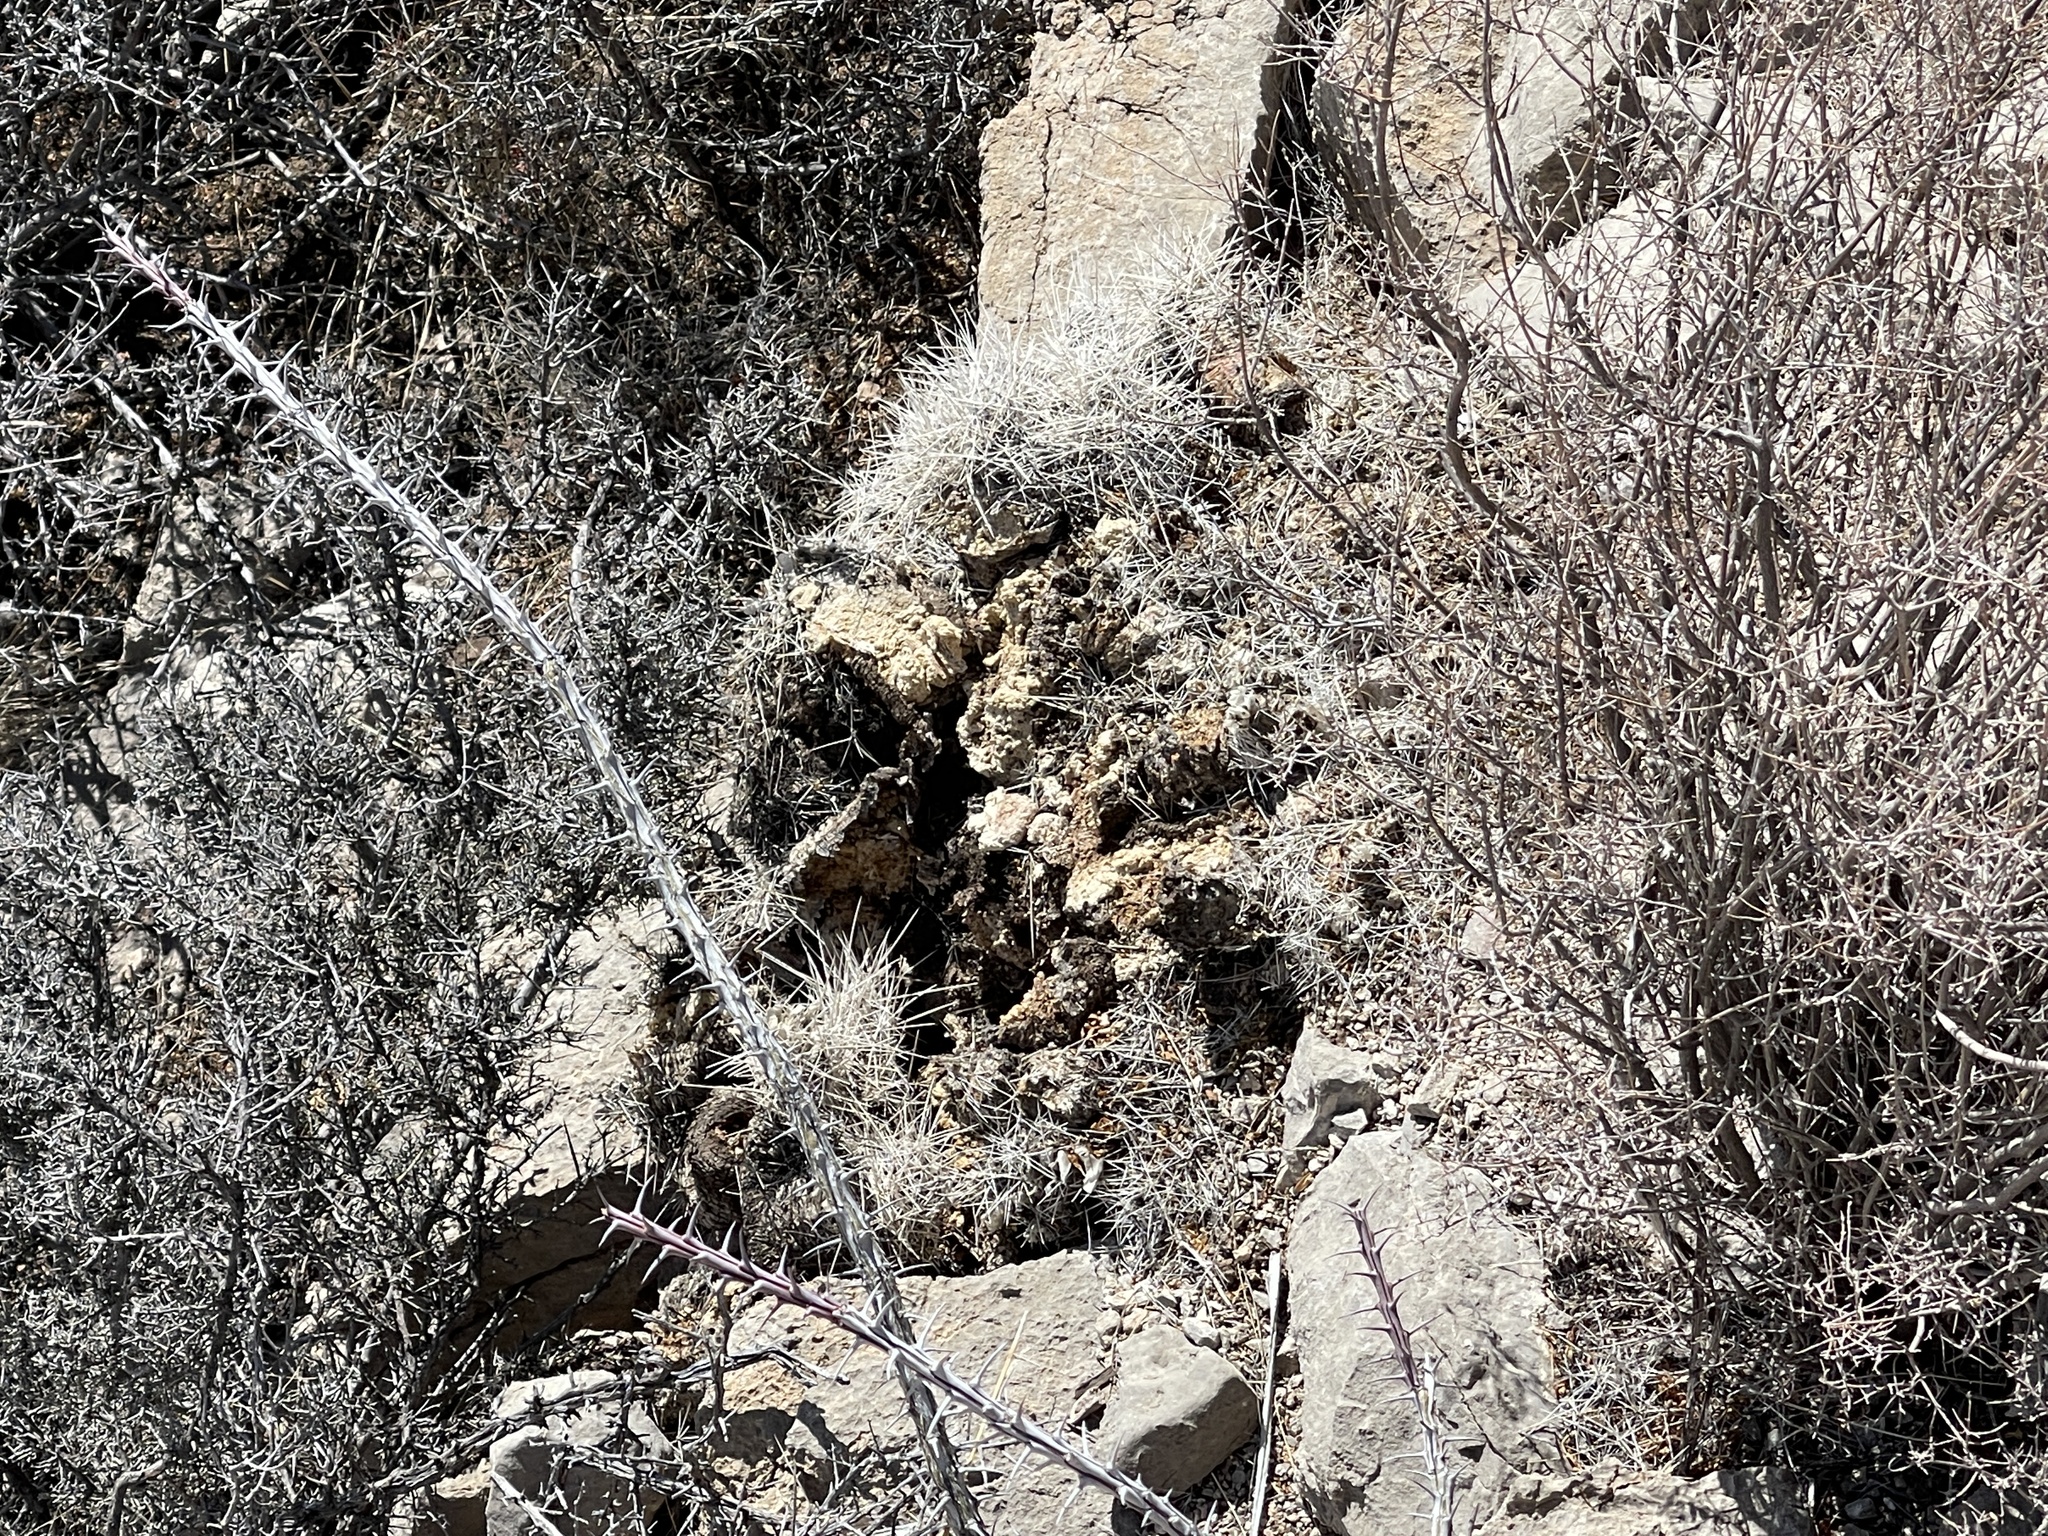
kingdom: Plantae
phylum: Tracheophyta
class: Magnoliopsida
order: Caryophyllales
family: Cactaceae
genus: Echinocereus
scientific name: Echinocereus stramineus
